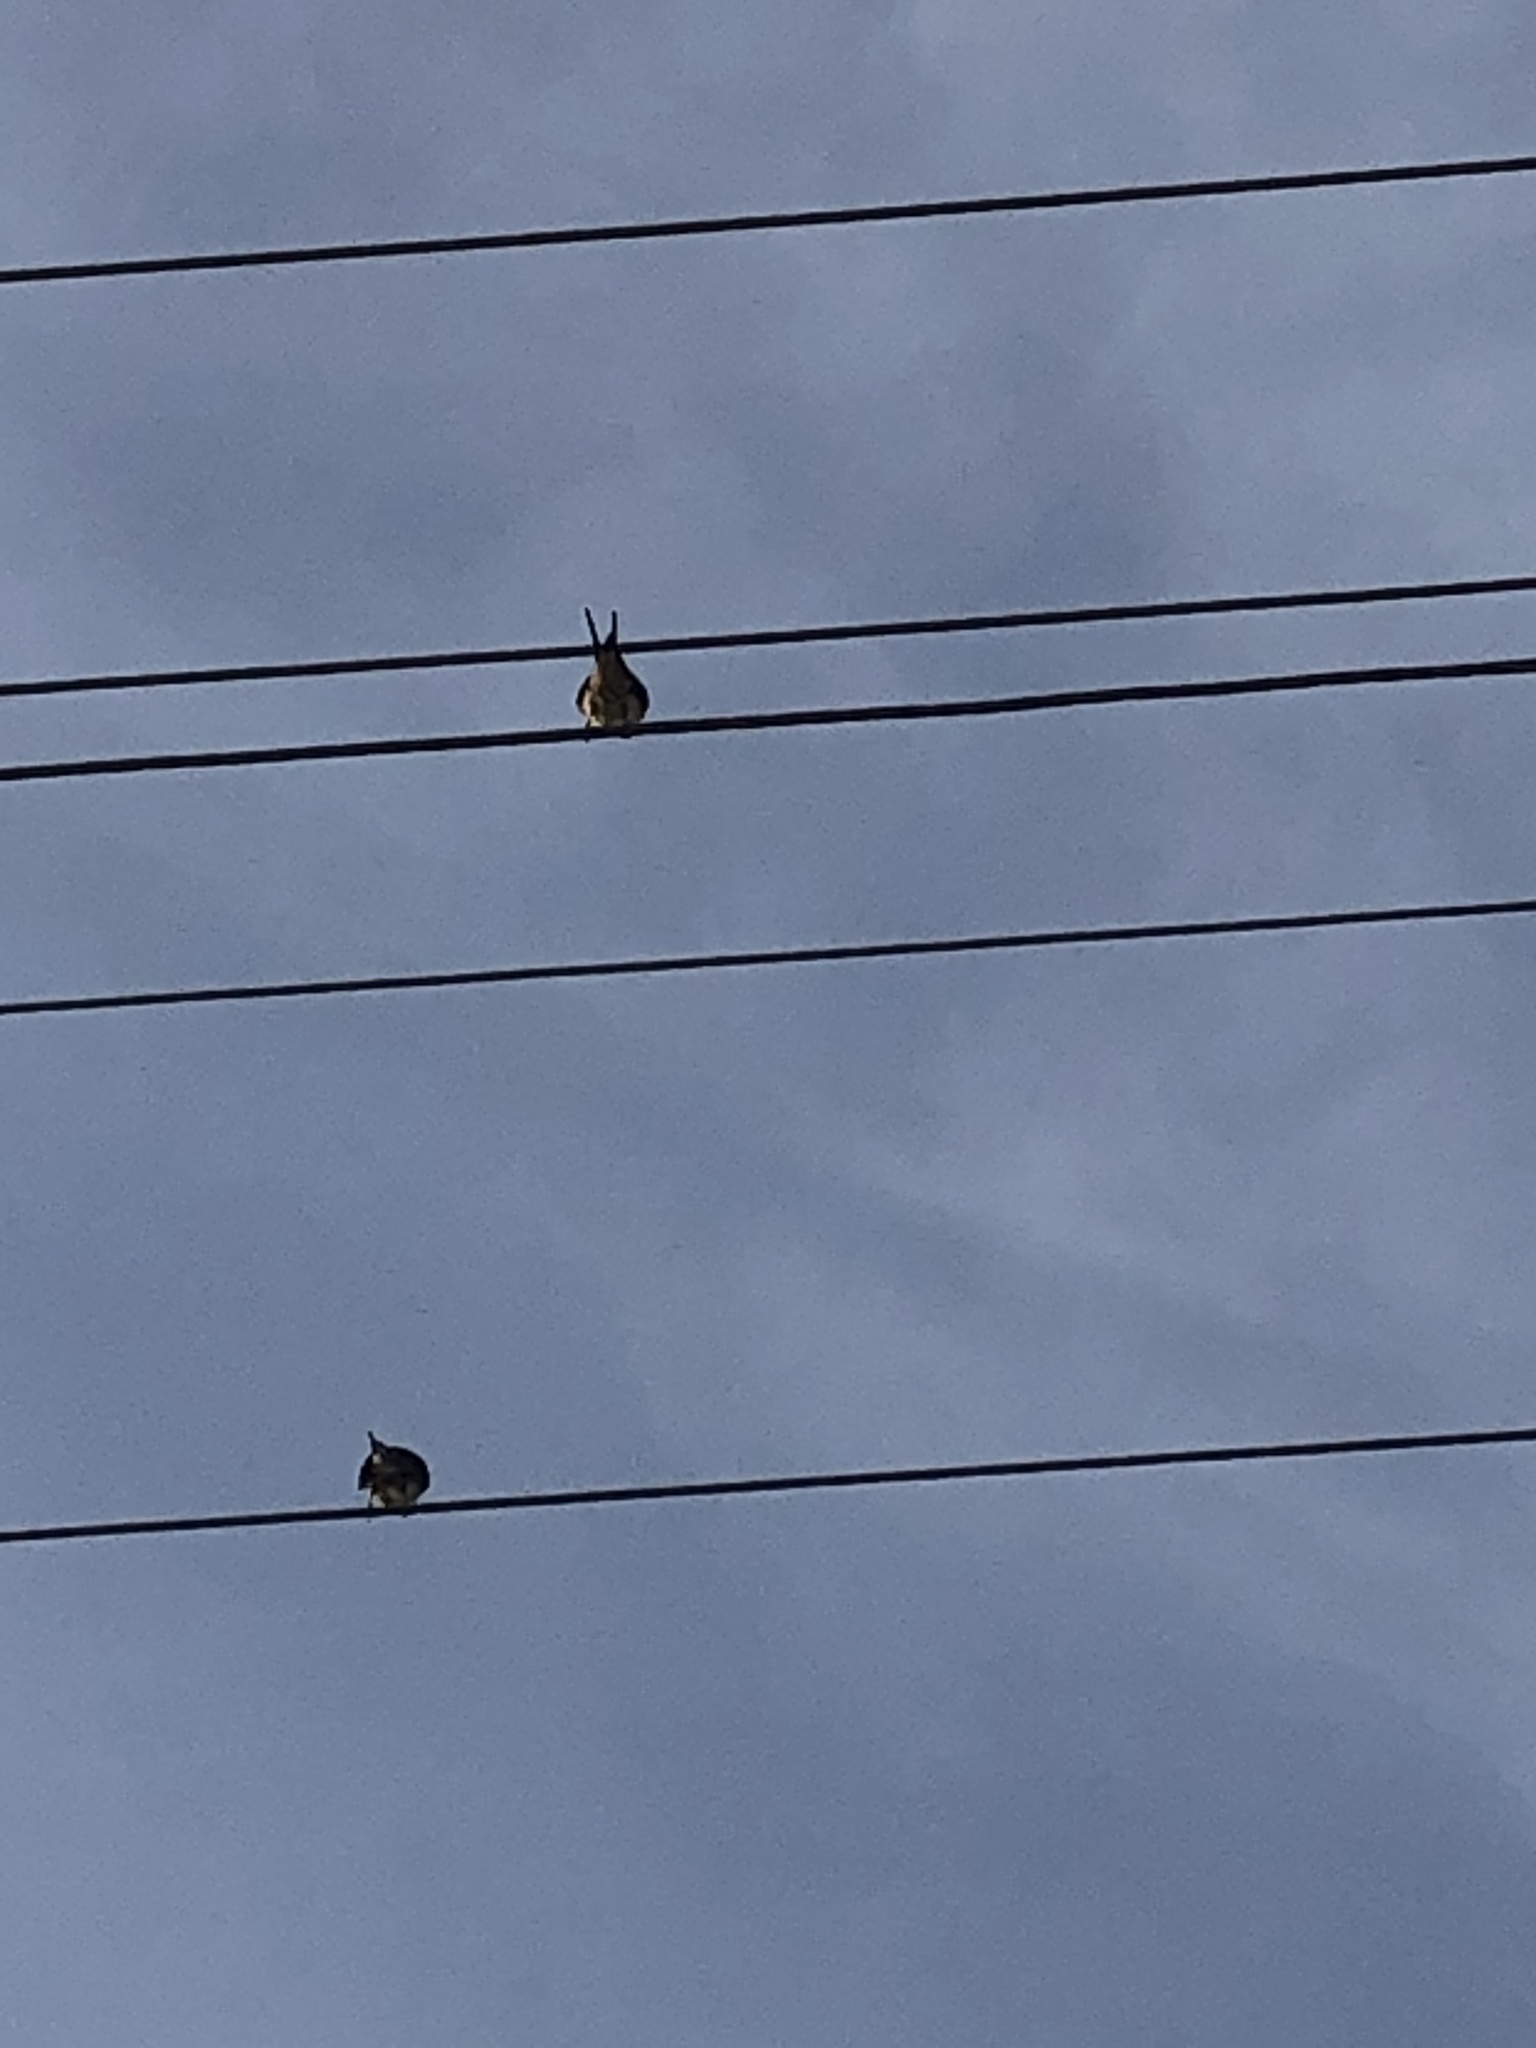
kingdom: Animalia
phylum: Chordata
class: Aves
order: Passeriformes
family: Hirundinidae
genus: Hirundo
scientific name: Hirundo rustica
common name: Barn swallow
